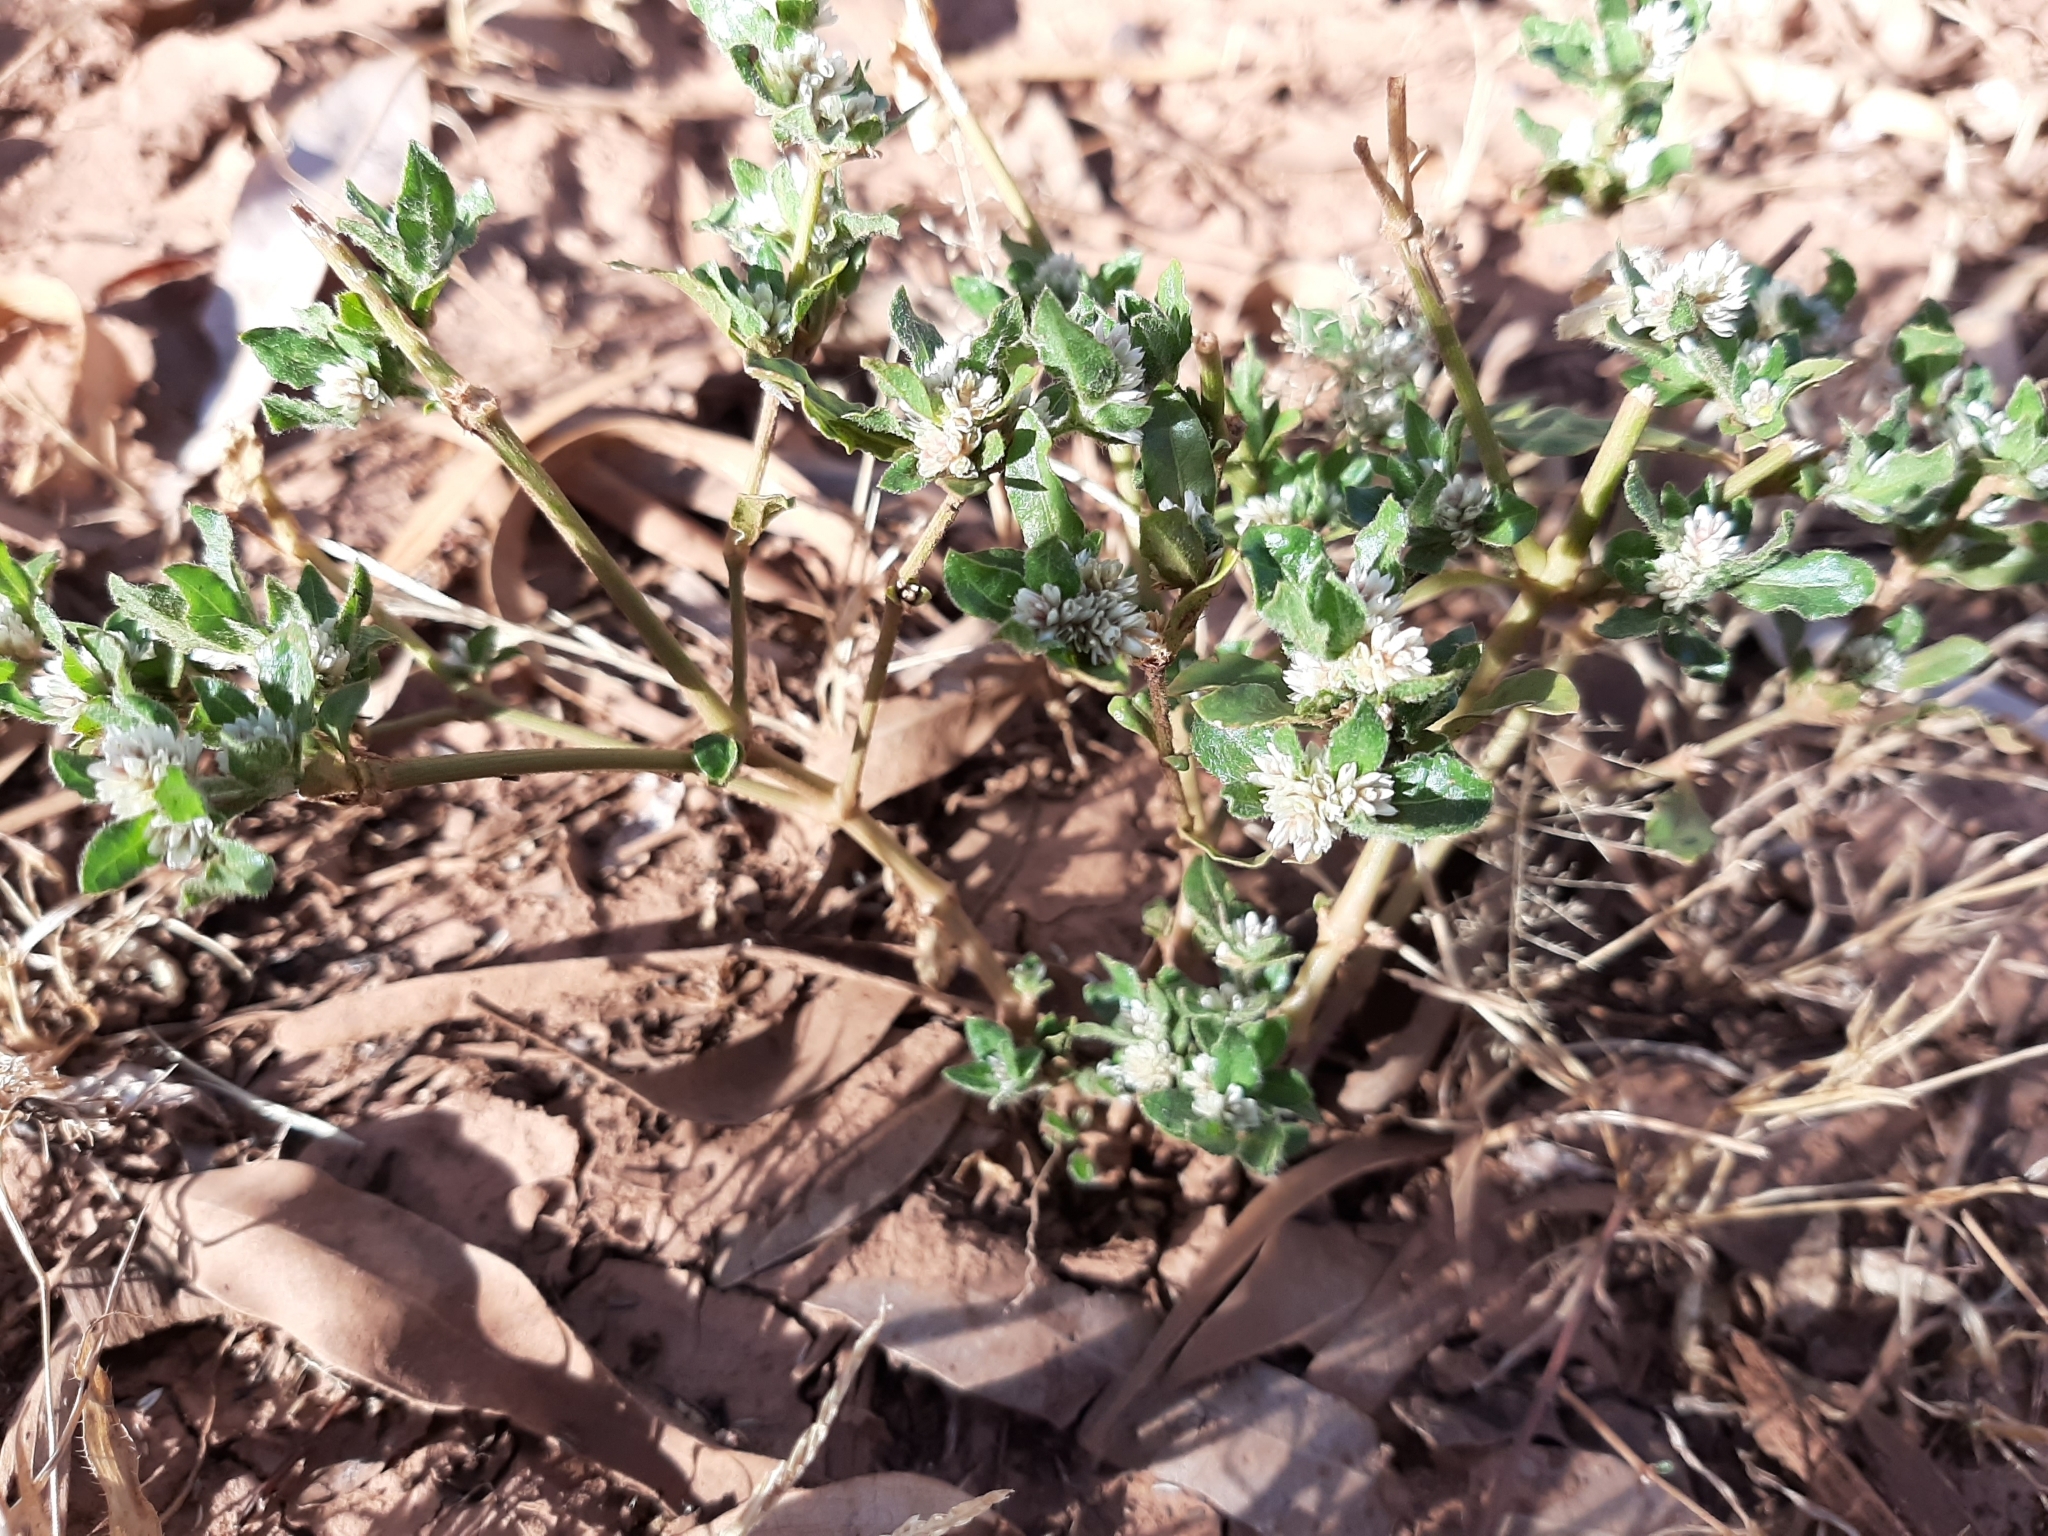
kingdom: Plantae
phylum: Tracheophyta
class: Magnoliopsida
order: Caryophyllales
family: Amaranthaceae
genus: Alternanthera
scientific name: Alternanthera nana
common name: Hairy joyweed
